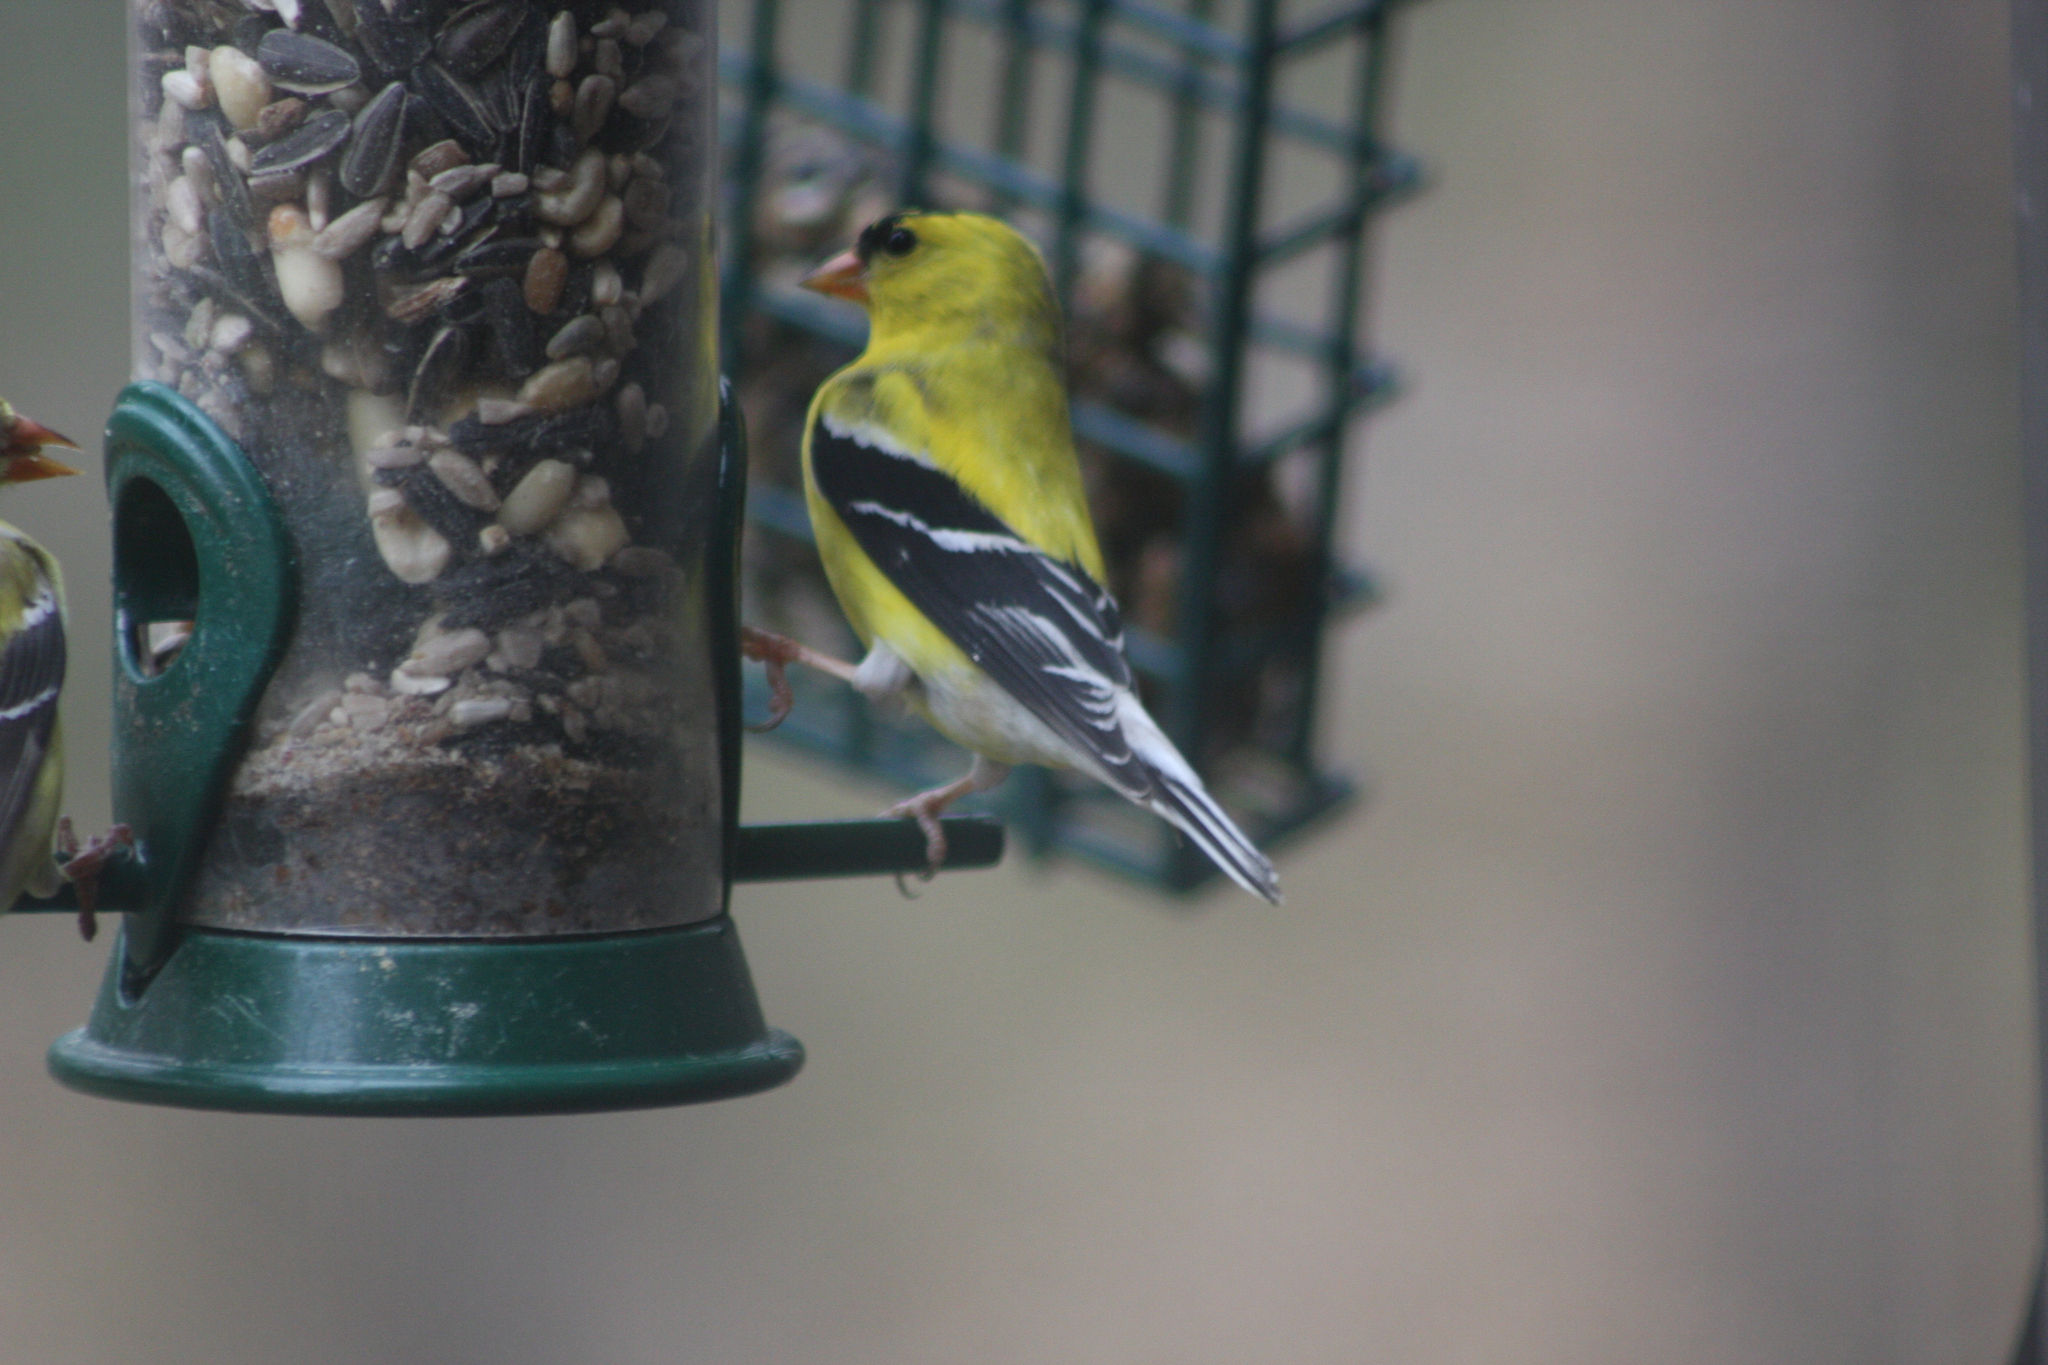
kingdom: Animalia
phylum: Chordata
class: Aves
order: Passeriformes
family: Fringillidae
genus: Spinus
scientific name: Spinus tristis
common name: American goldfinch
